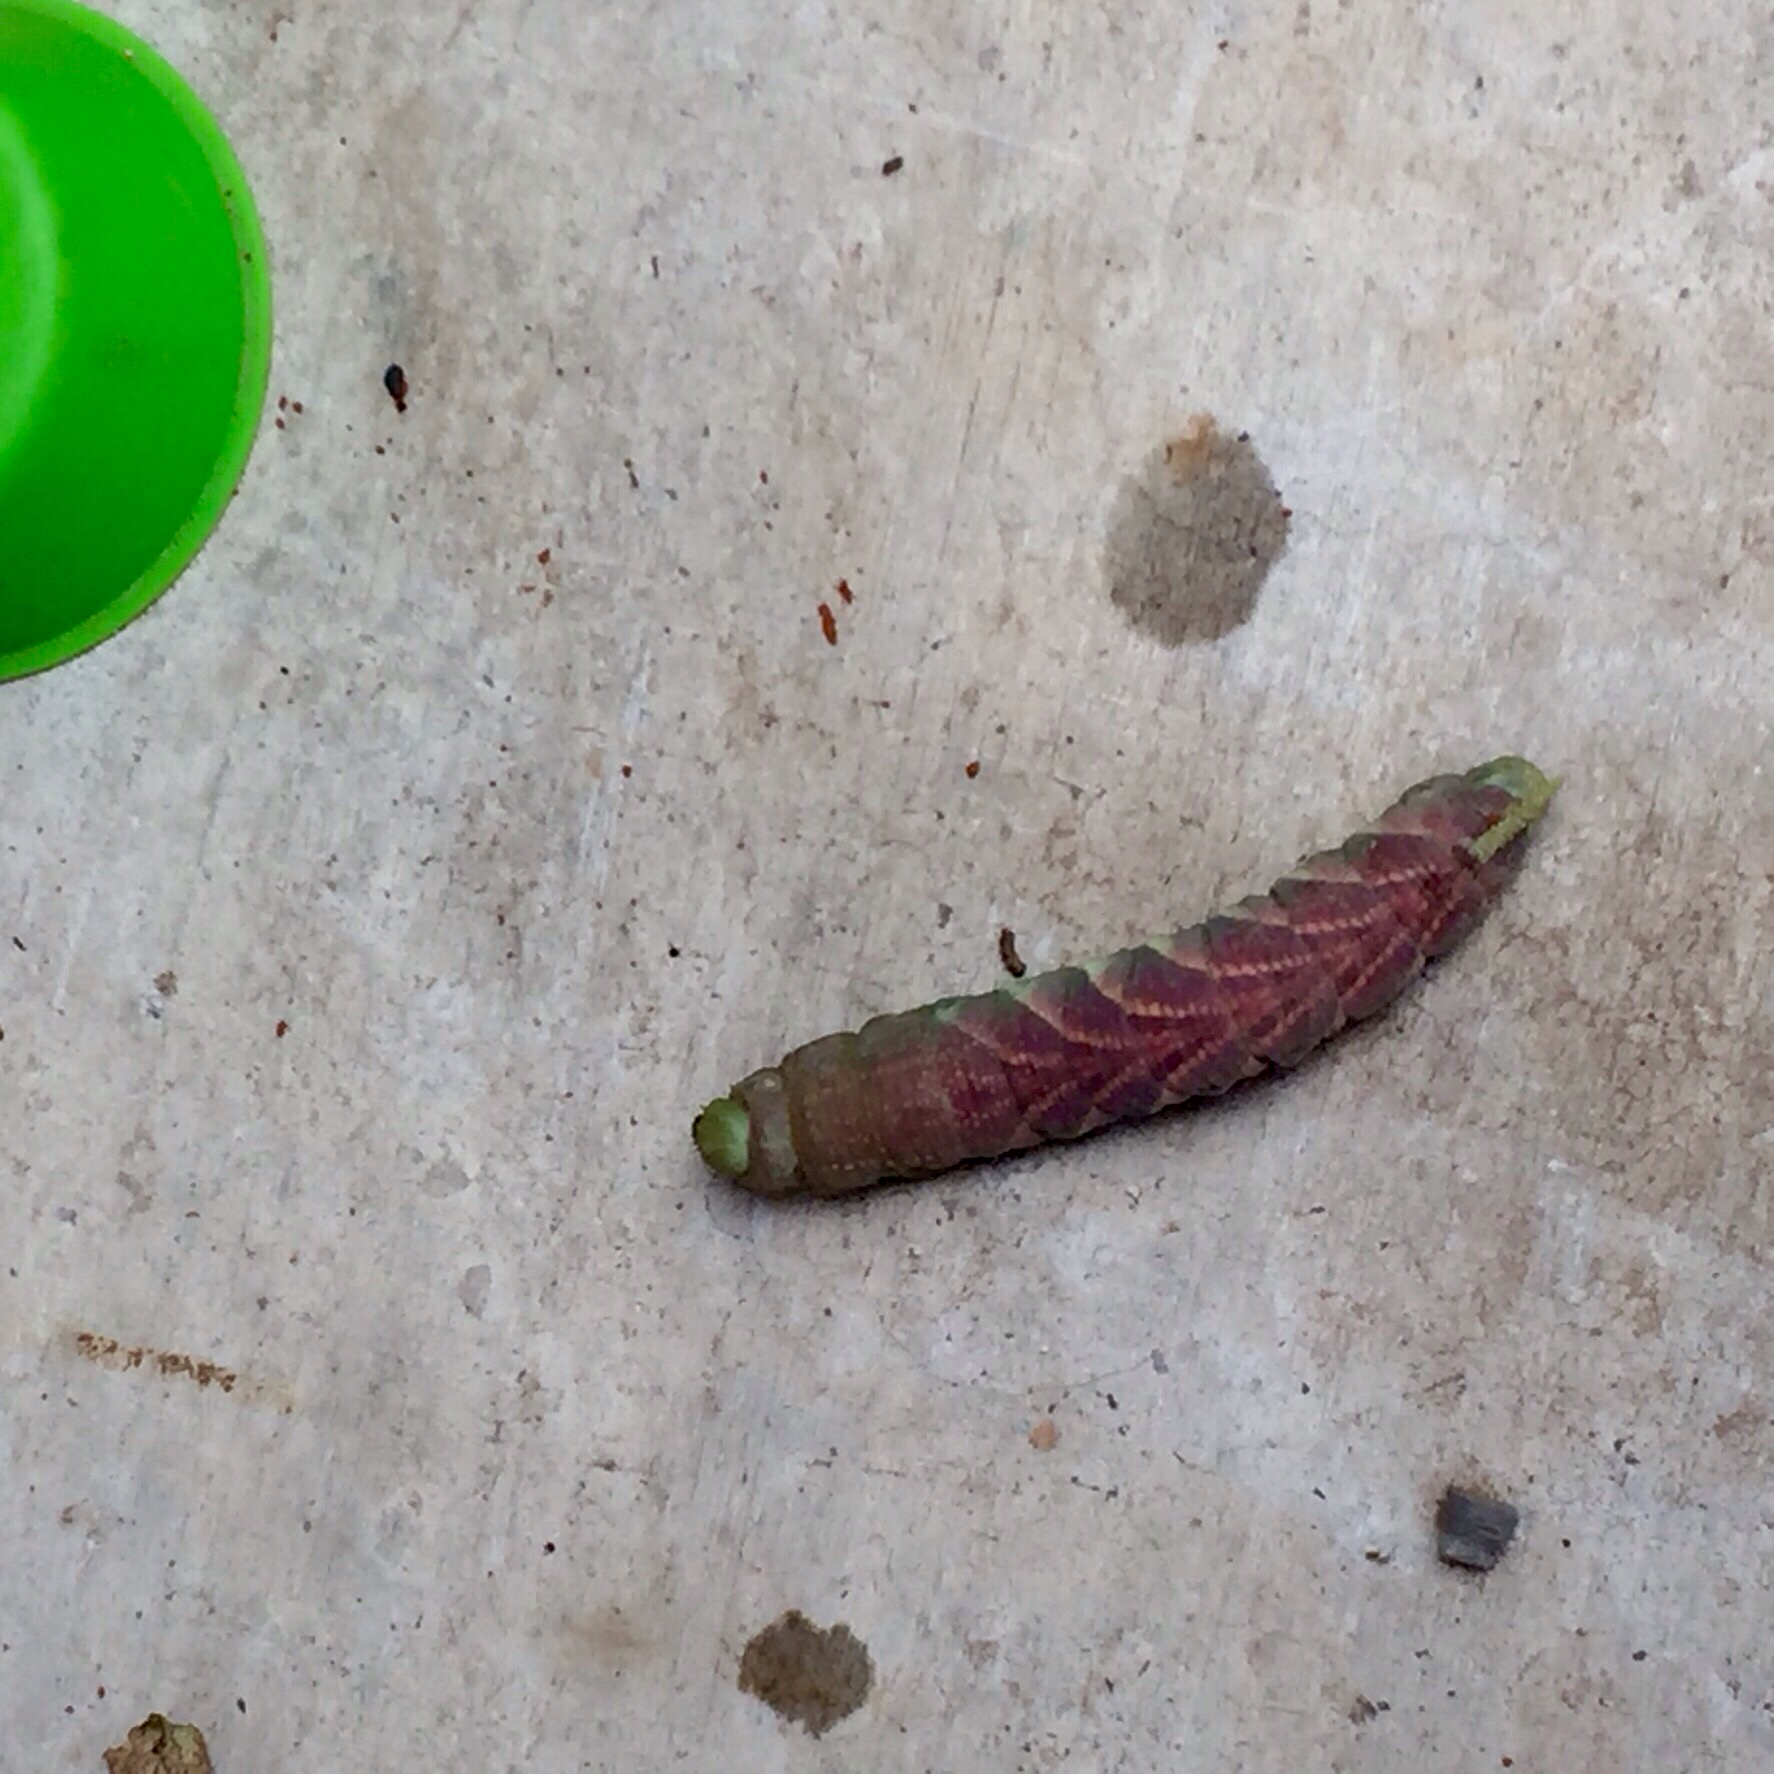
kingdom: Animalia
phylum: Arthropoda
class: Insecta
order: Lepidoptera
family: Sphingidae
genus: Manduca
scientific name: Manduca rustica
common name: Rustic sphinx
